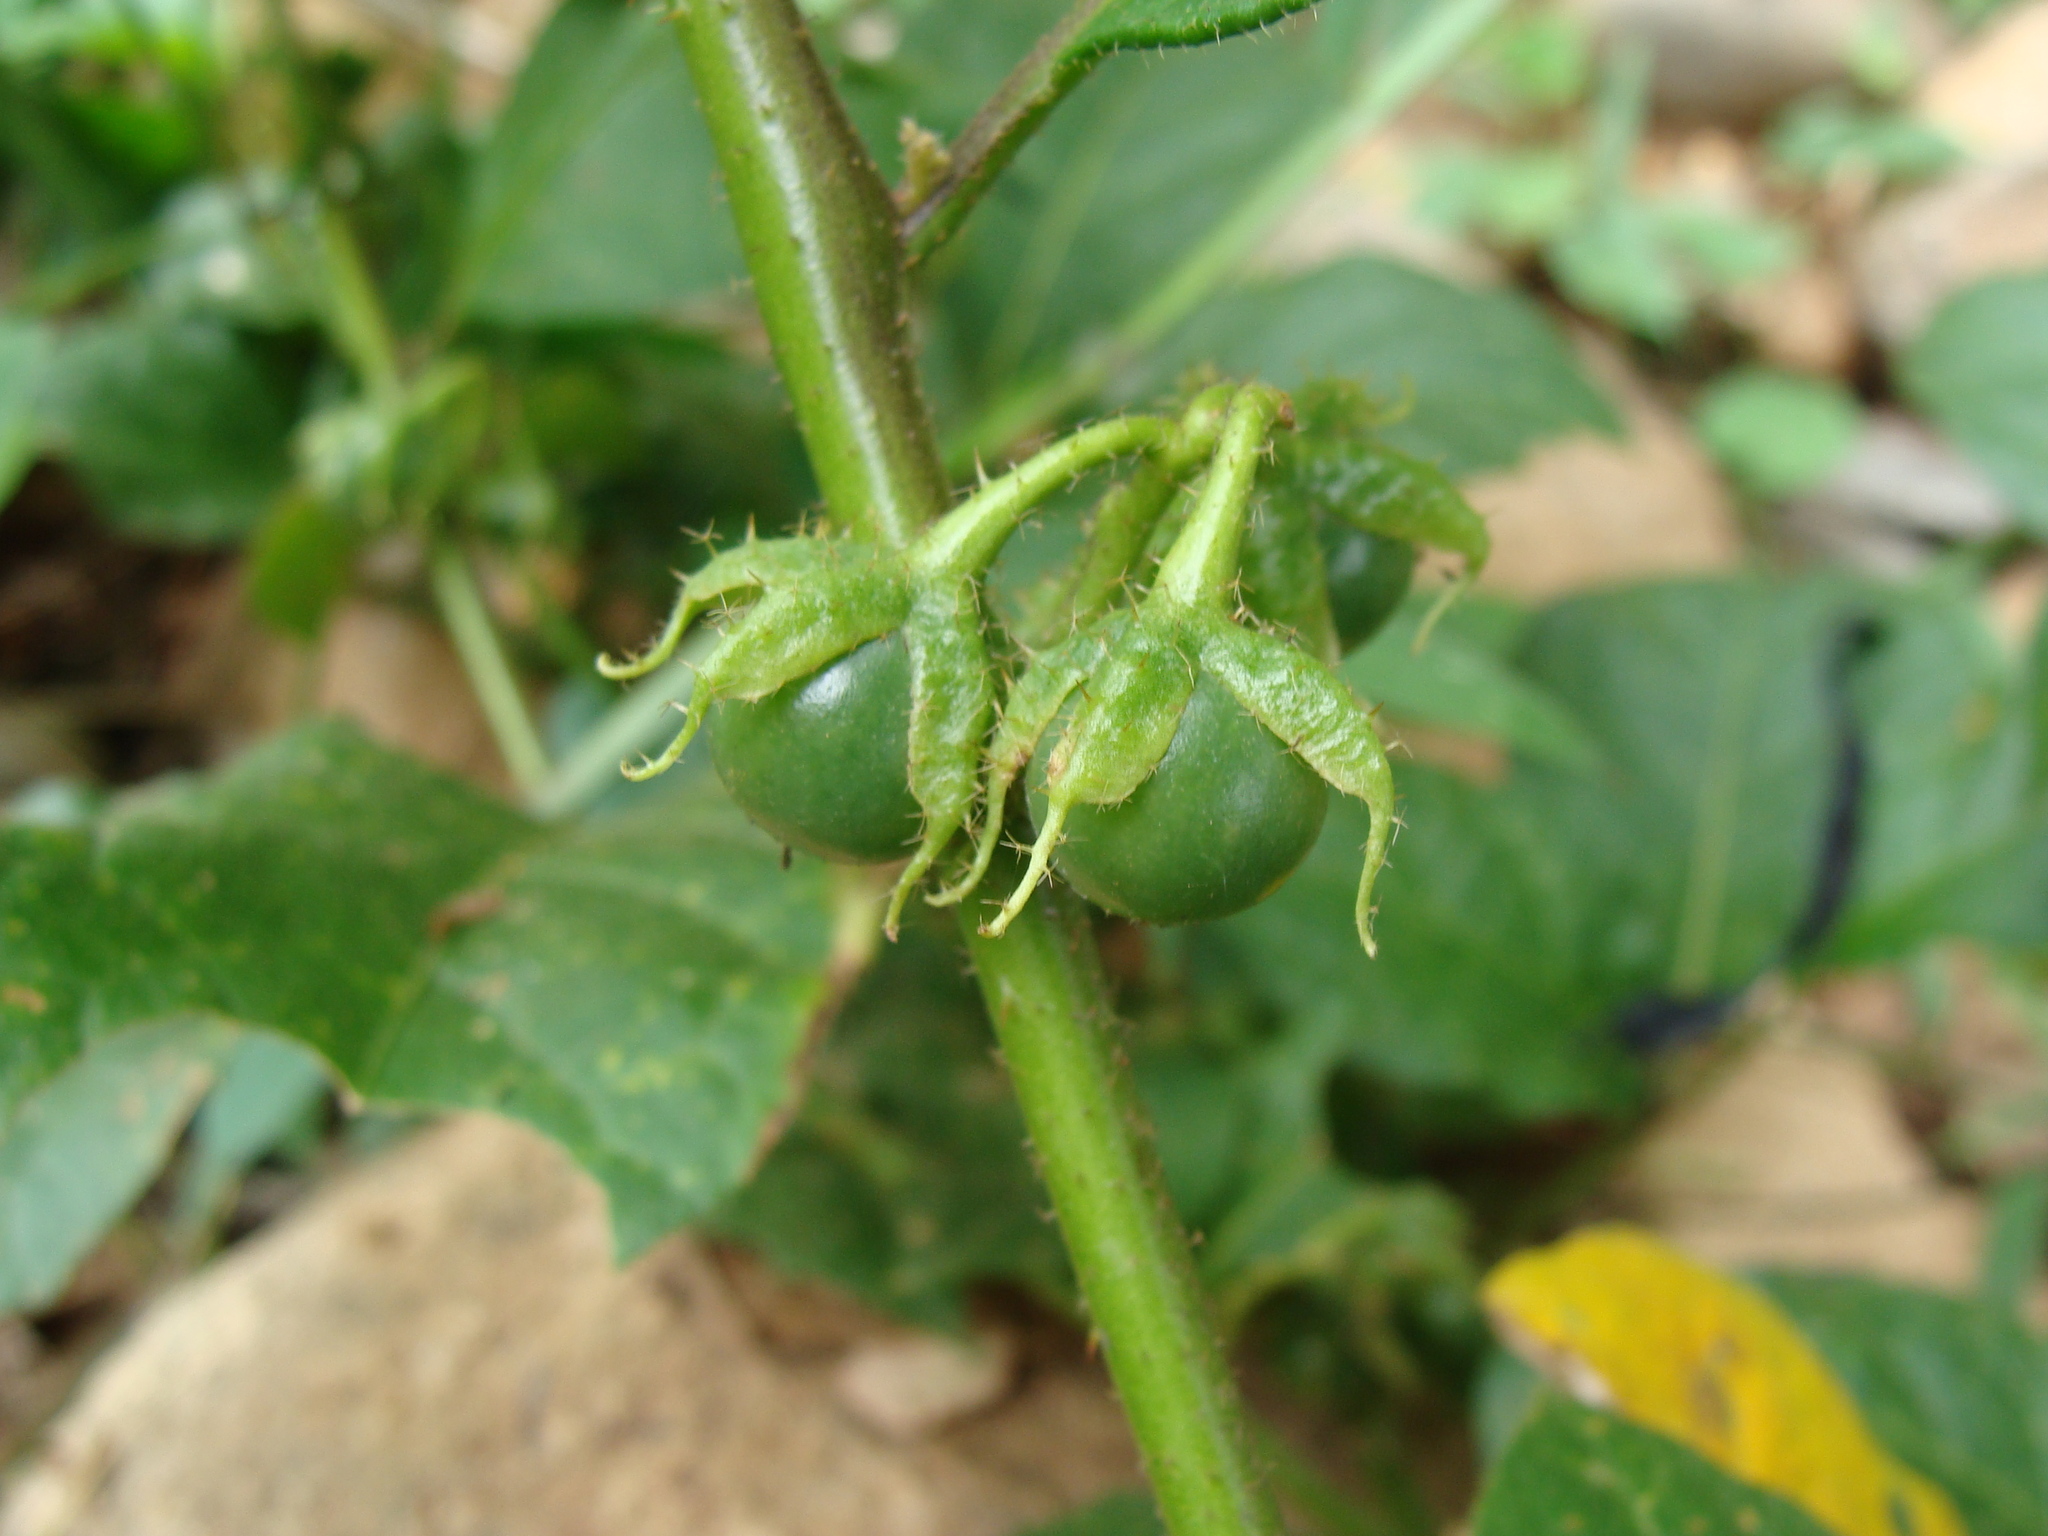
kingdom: Plantae
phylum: Tracheophyta
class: Magnoliopsida
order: Solanales
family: Solanaceae
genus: Solanum
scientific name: Solanum volubile
